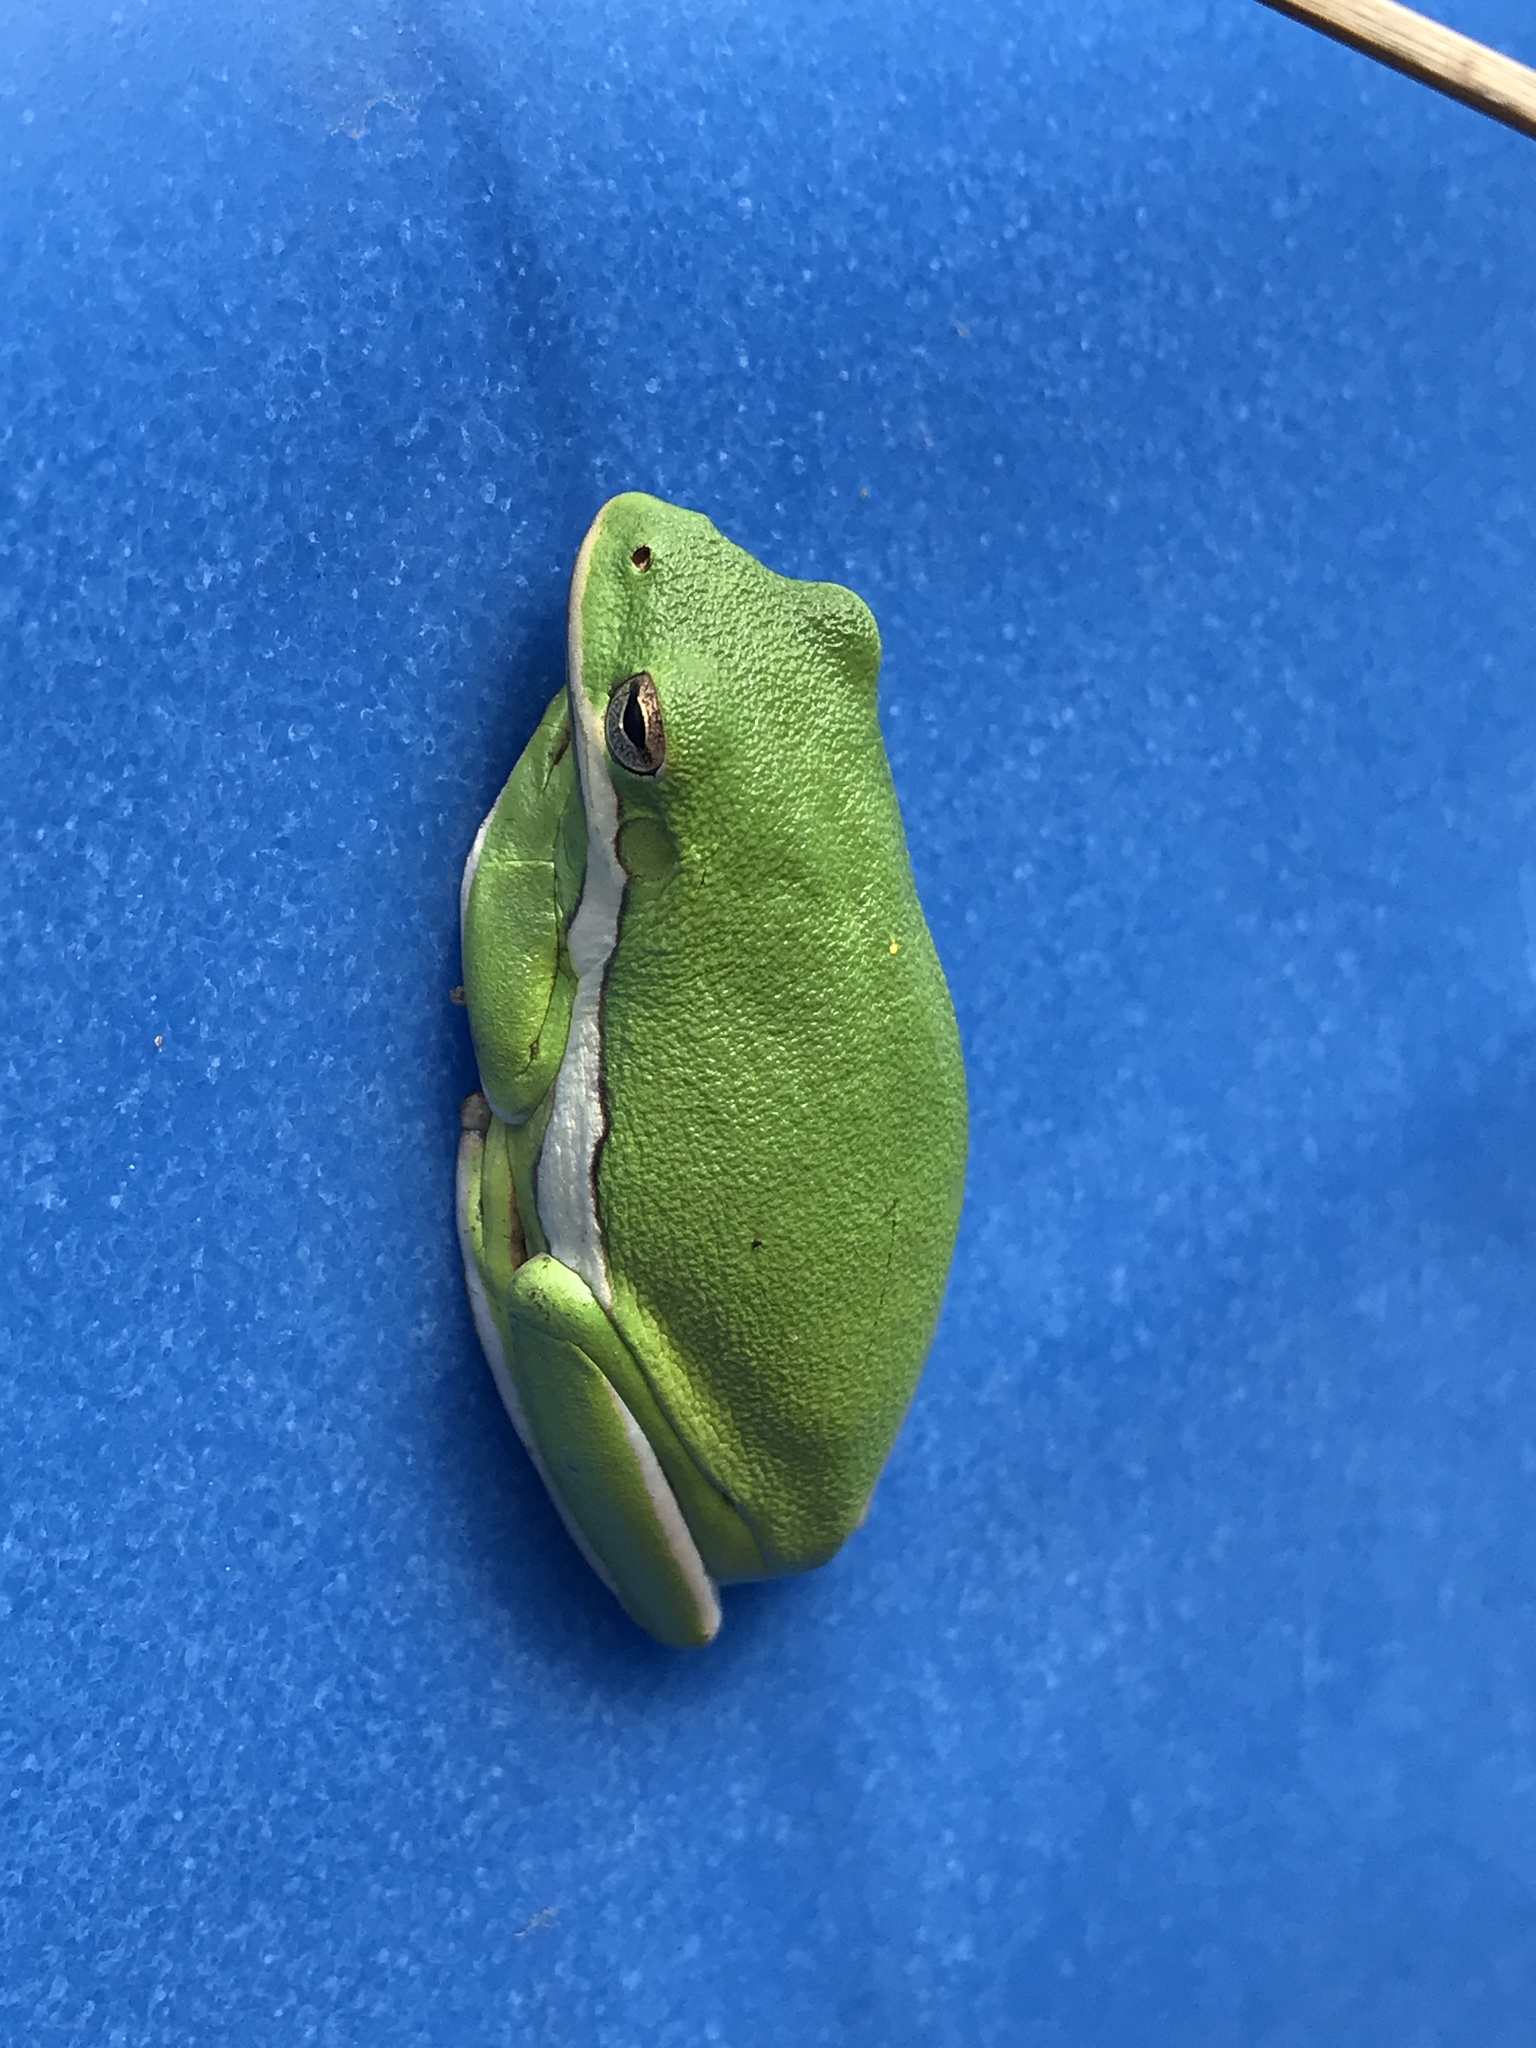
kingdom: Animalia
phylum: Chordata
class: Amphibia
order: Anura
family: Hylidae
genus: Dryophytes
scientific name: Dryophytes cinereus
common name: Green treefrog
